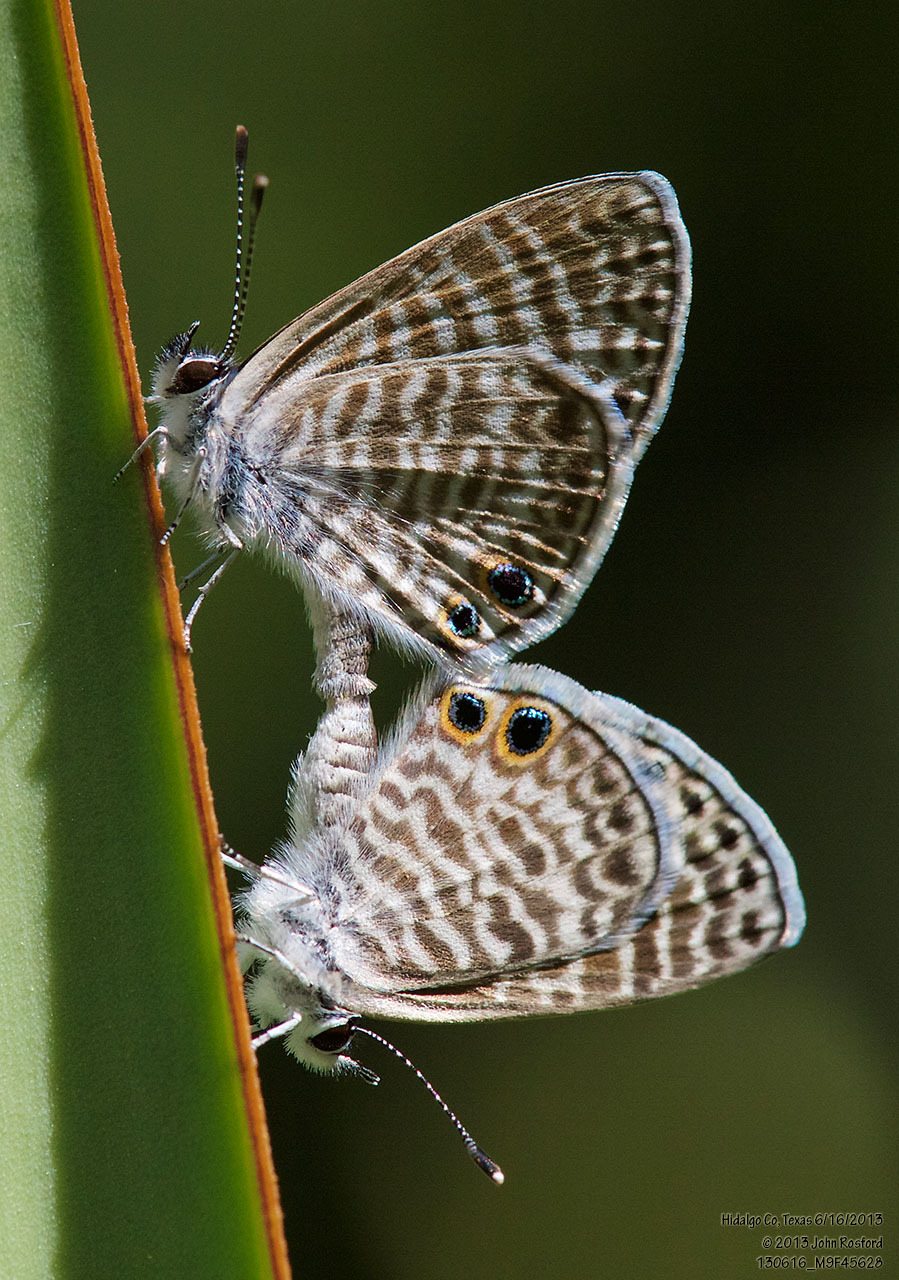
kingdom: Animalia
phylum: Arthropoda
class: Insecta
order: Lepidoptera
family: Lycaenidae
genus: Leptotes
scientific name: Leptotes marina
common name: Marine blue
